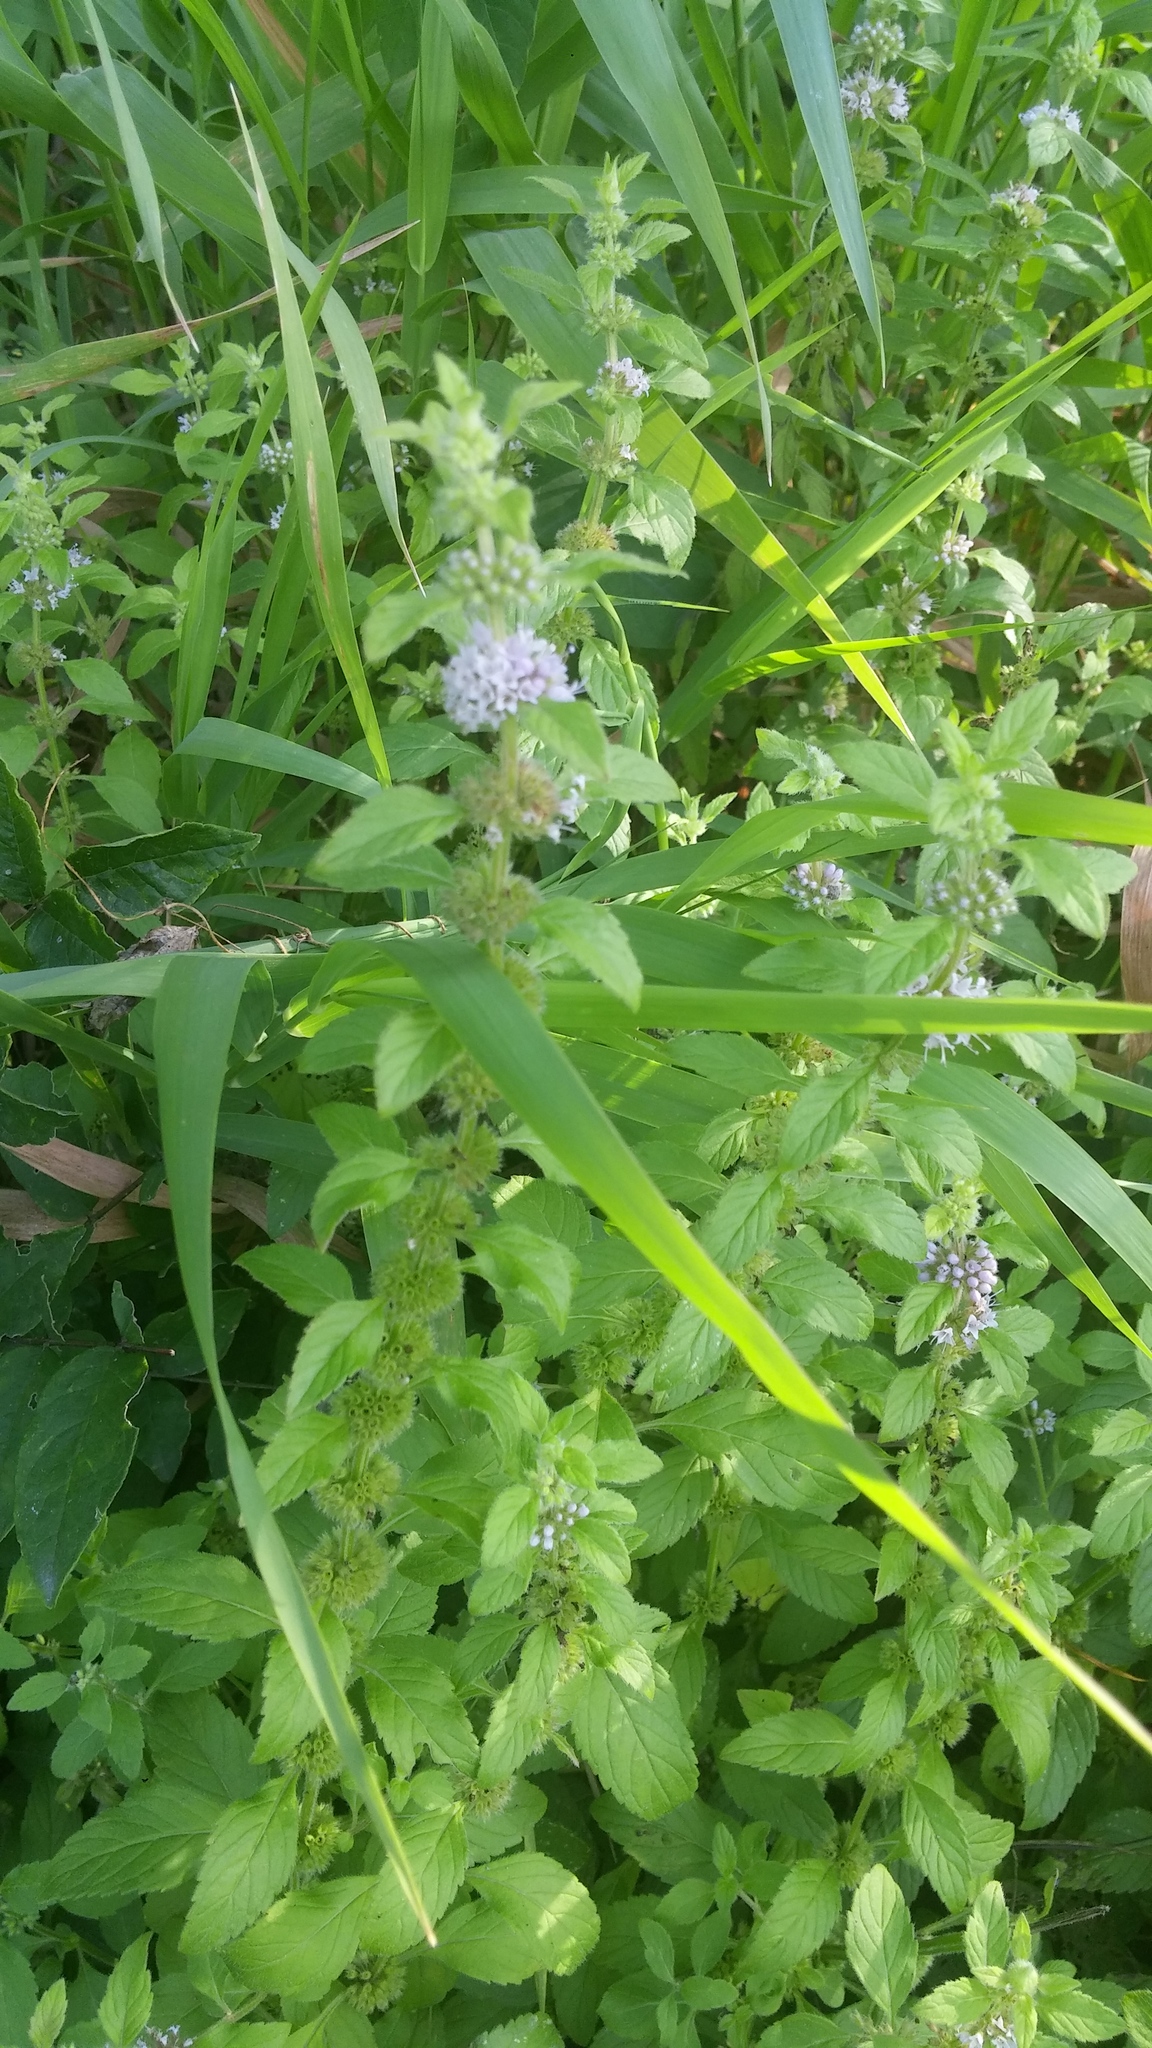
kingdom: Plantae
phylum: Tracheophyta
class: Magnoliopsida
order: Lamiales
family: Lamiaceae
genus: Mentha
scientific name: Mentha canadensis
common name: American corn mint
